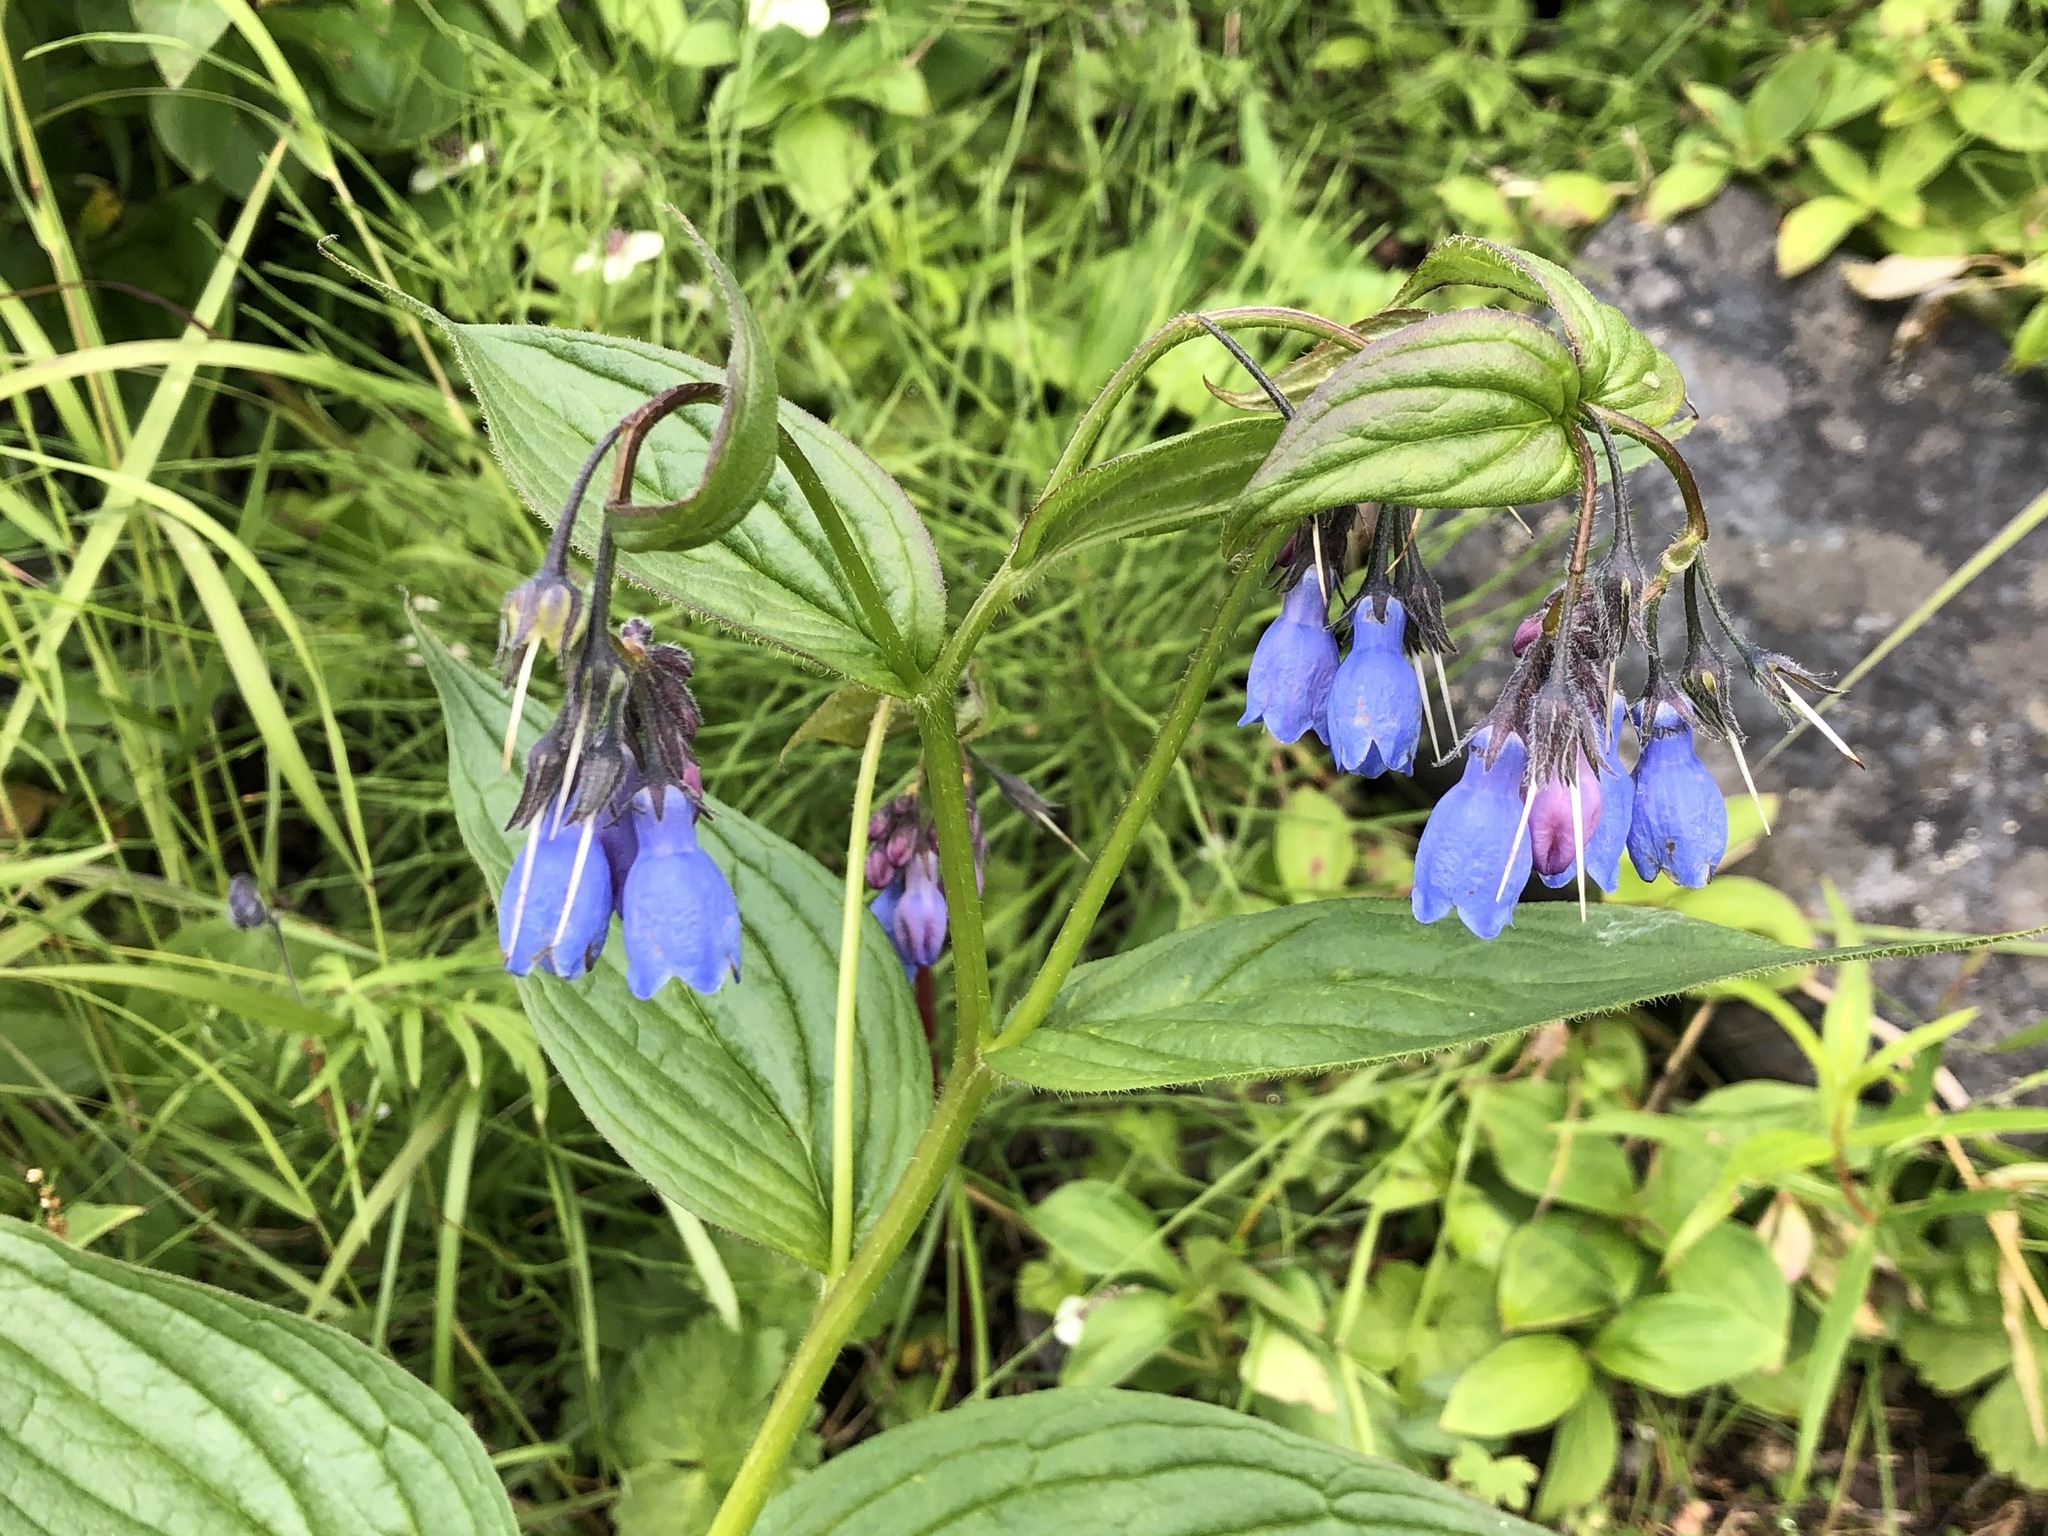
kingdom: Plantae
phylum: Tracheophyta
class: Magnoliopsida
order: Boraginales
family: Boraginaceae
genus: Mertensia
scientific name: Mertensia paniculata
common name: Panicled bluebells
